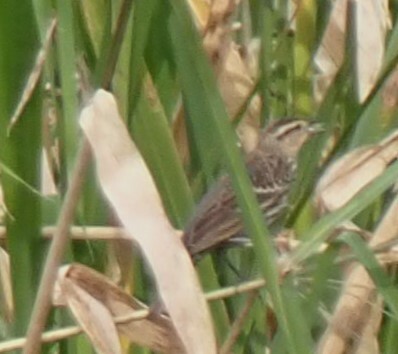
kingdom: Animalia
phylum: Chordata
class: Aves
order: Passeriformes
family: Icteridae
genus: Agelaius
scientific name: Agelaius phoeniceus
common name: Red-winged blackbird
